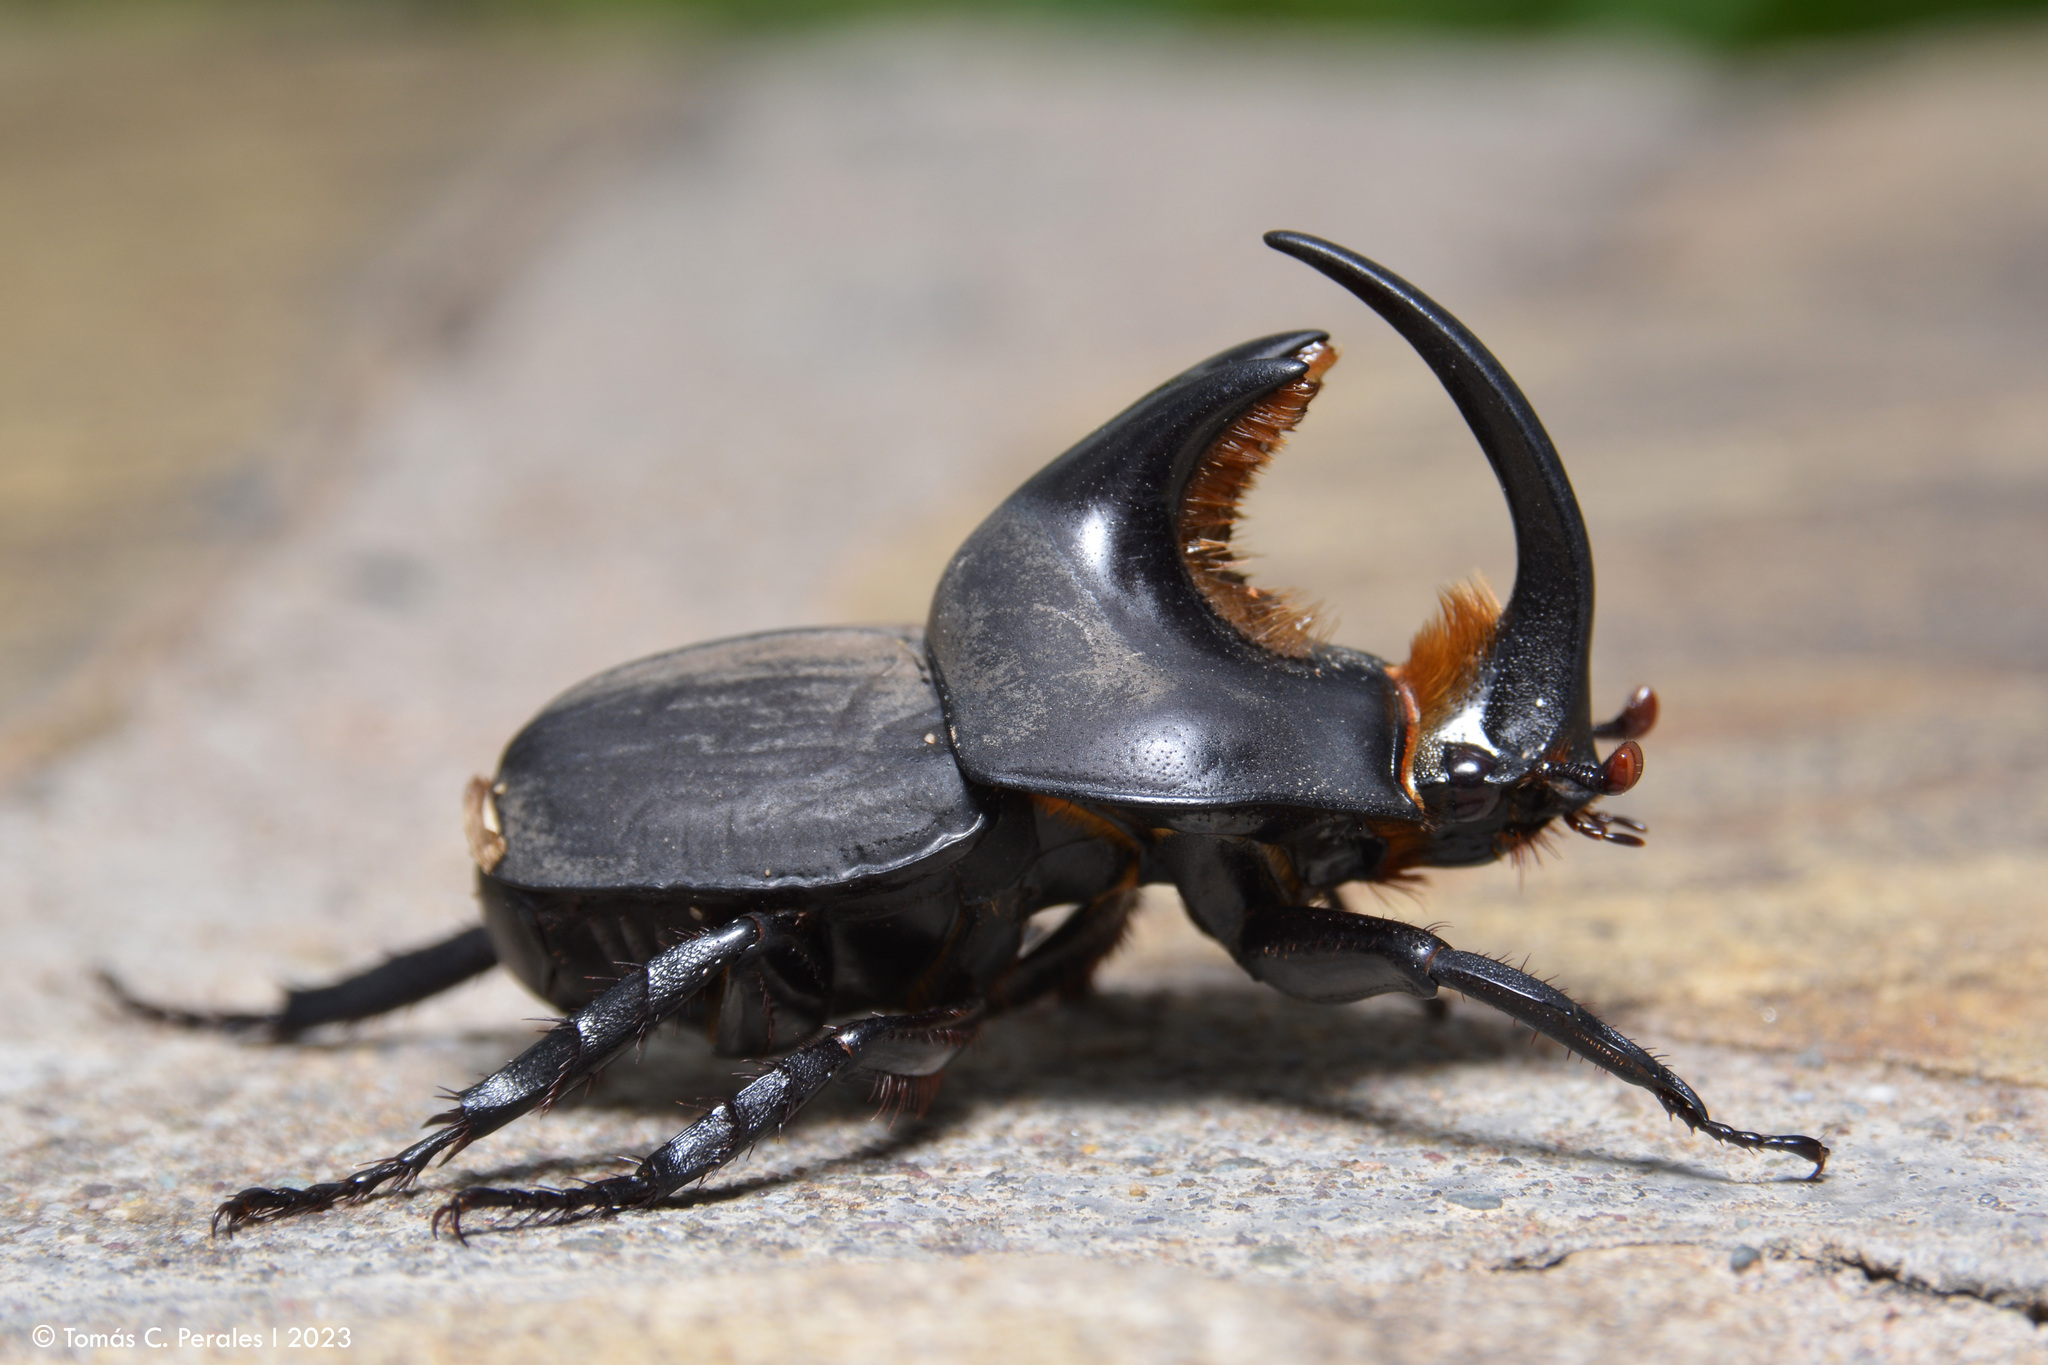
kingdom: Animalia
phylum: Arthropoda
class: Insecta
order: Coleoptera
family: Scarabaeidae
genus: Diloboderus
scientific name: Diloboderus abderus
